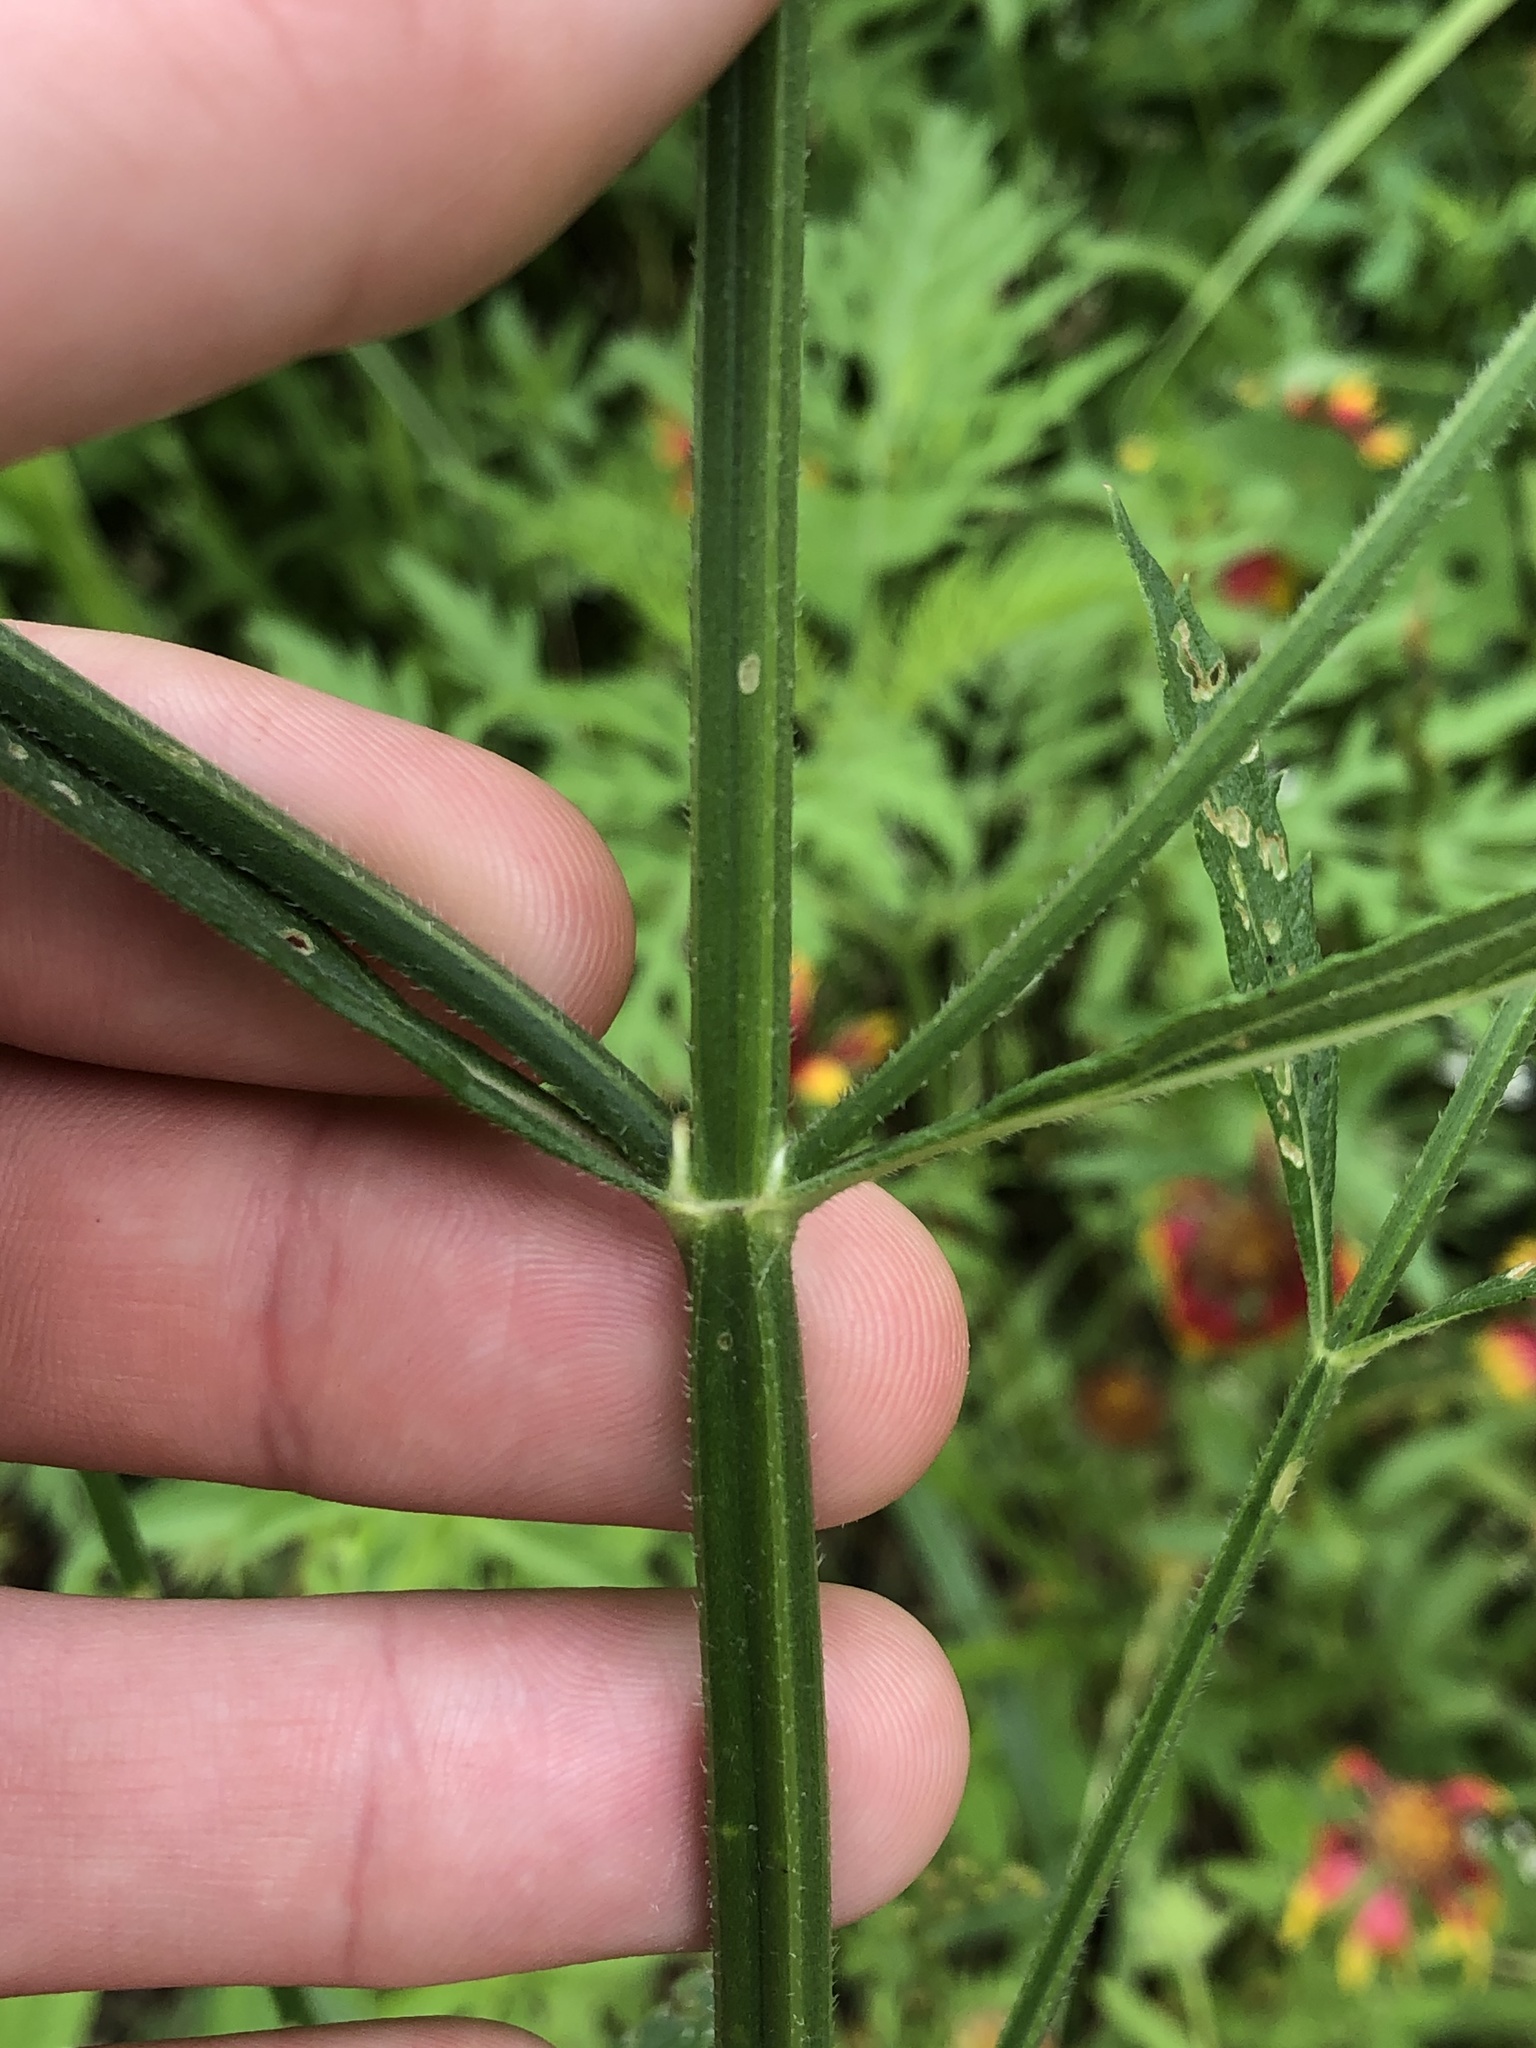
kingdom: Plantae
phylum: Tracheophyta
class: Magnoliopsida
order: Lamiales
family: Verbenaceae
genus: Verbena
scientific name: Verbena brasiliensis
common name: Brazilian vervain
